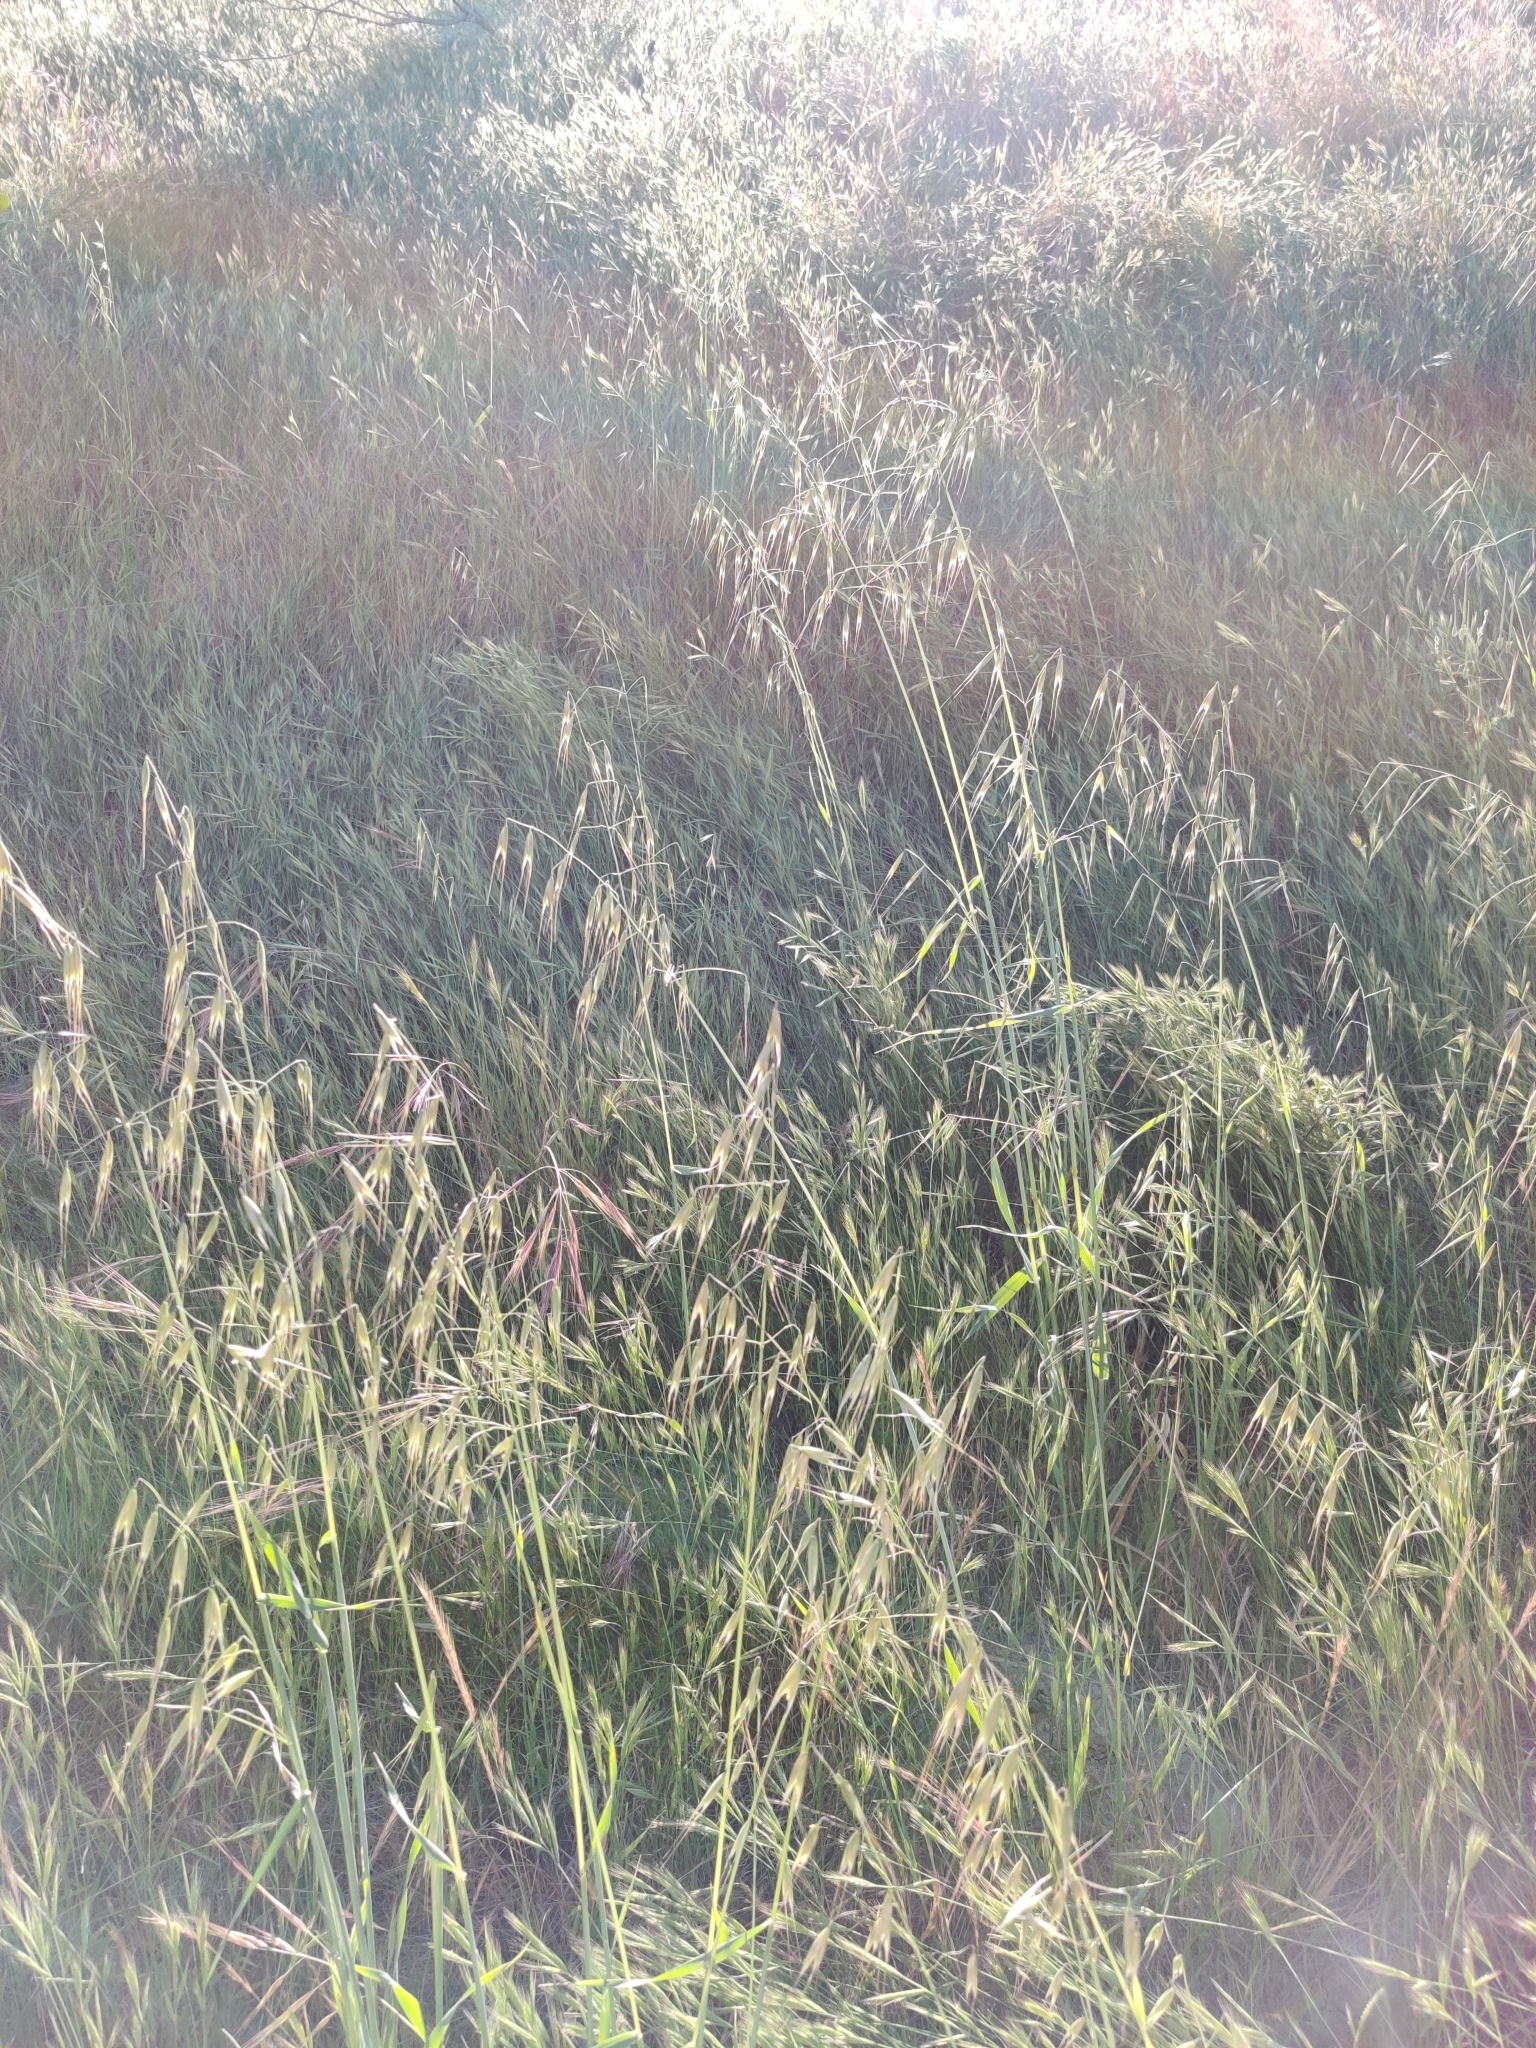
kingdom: Plantae
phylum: Tracheophyta
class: Liliopsida
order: Poales
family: Poaceae
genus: Avena
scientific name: Avena barbata
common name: Slender oat
